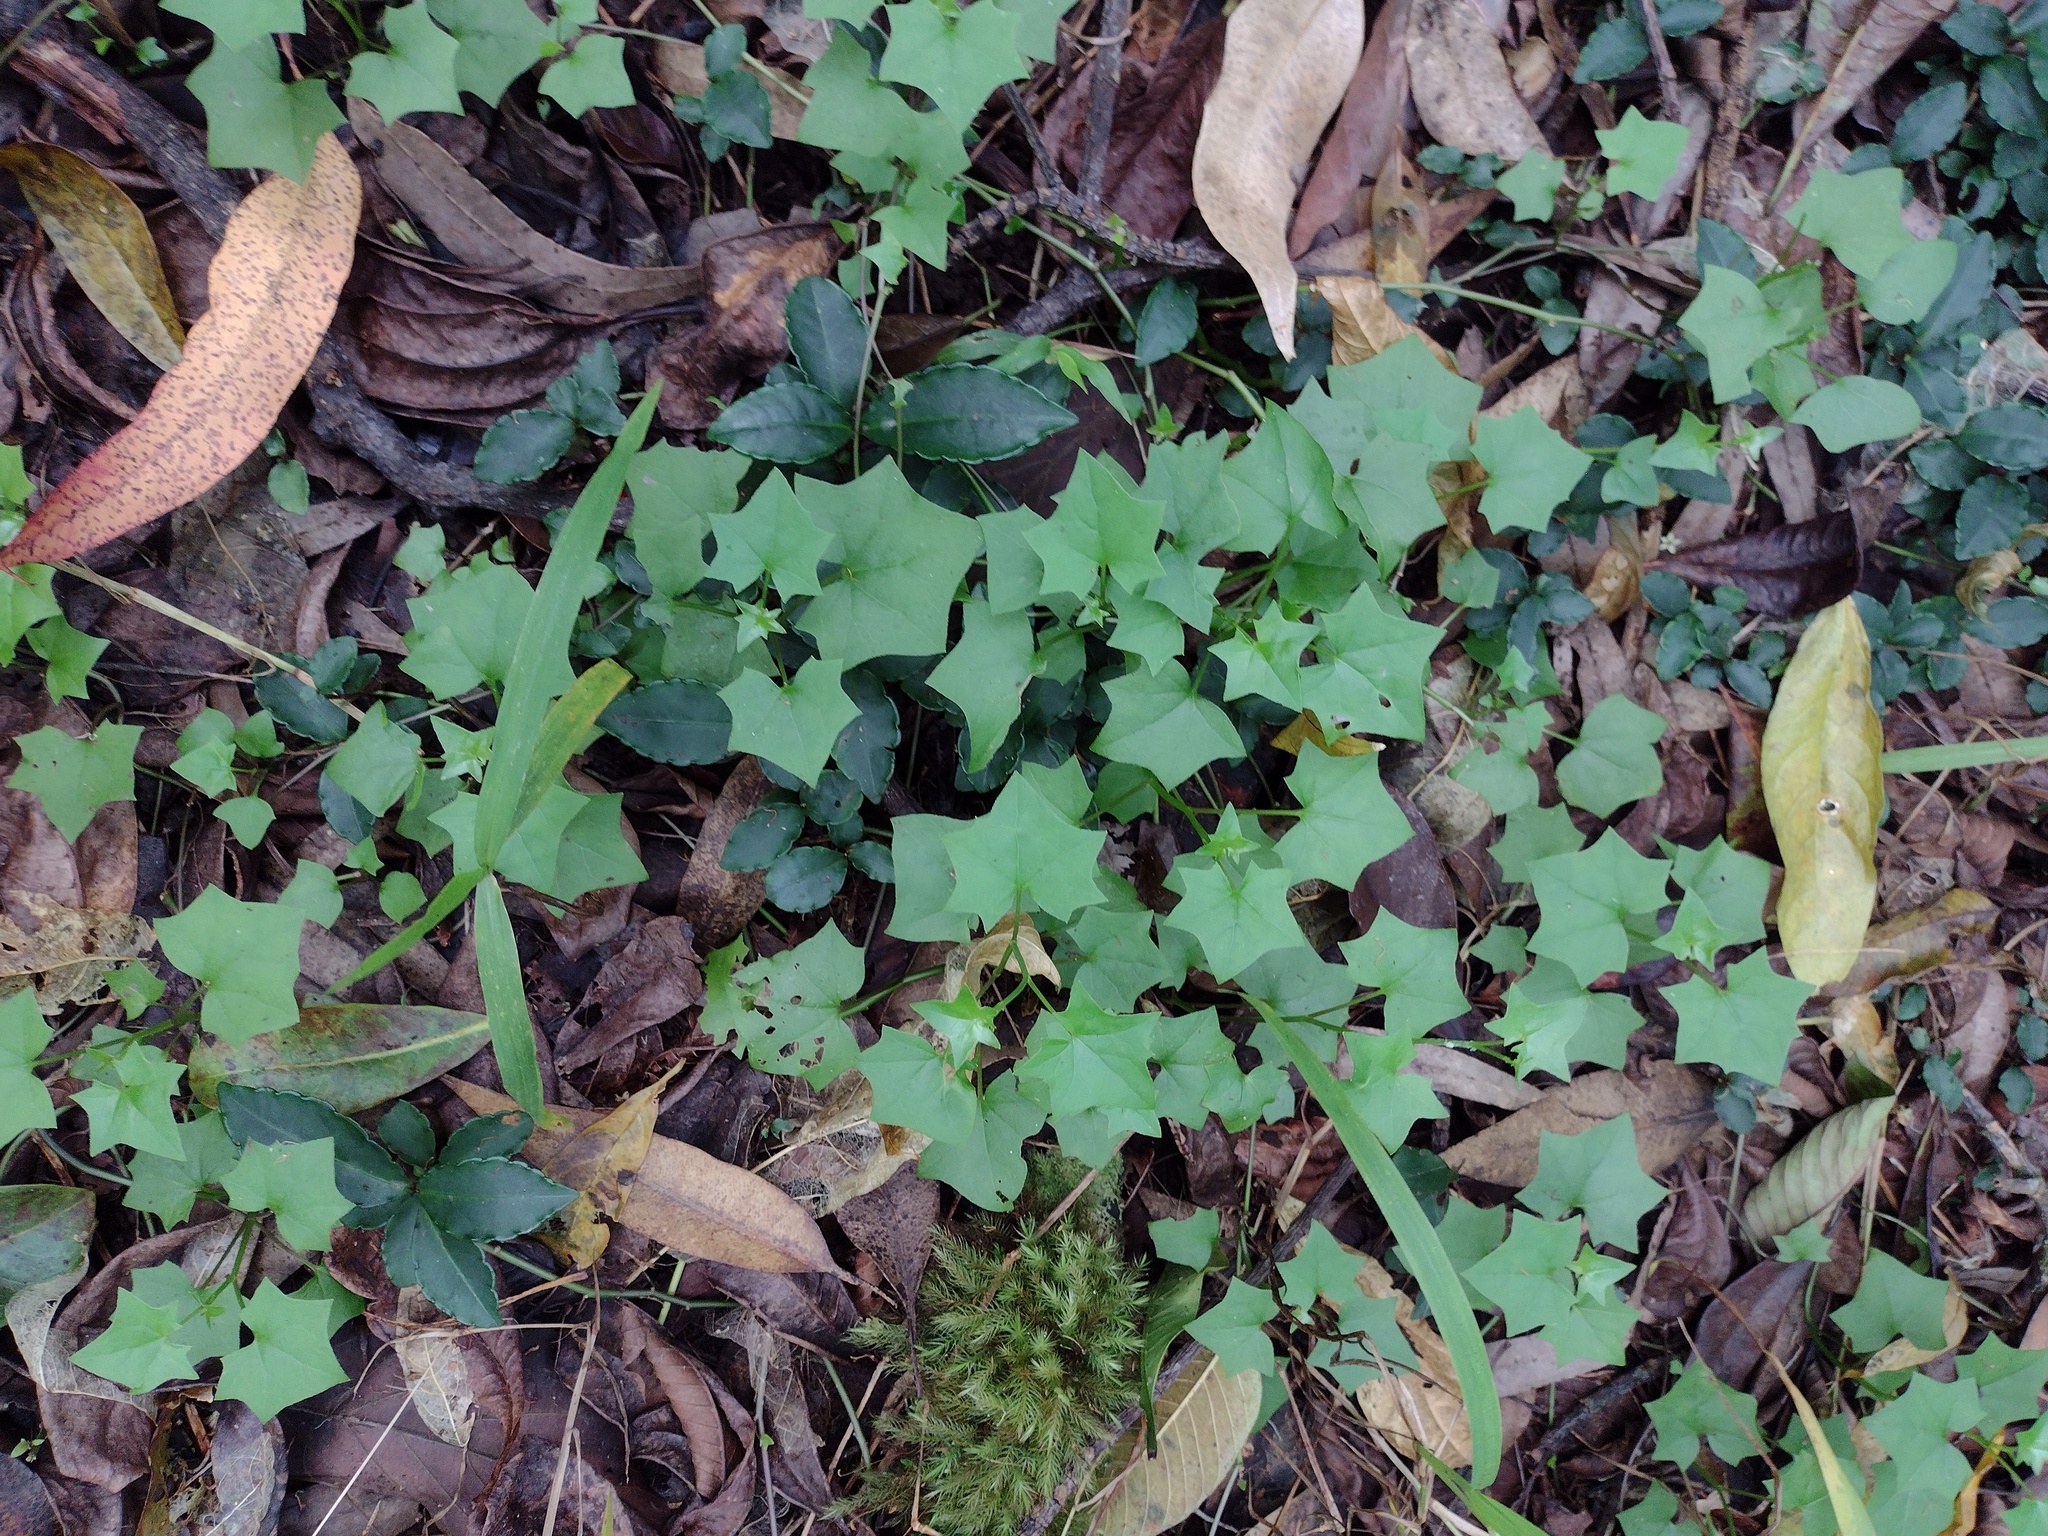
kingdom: Plantae
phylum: Tracheophyta
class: Magnoliopsida
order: Ericales
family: Primulaceae
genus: Ardisia
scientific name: Ardisia crenata
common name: Hen's eyes
